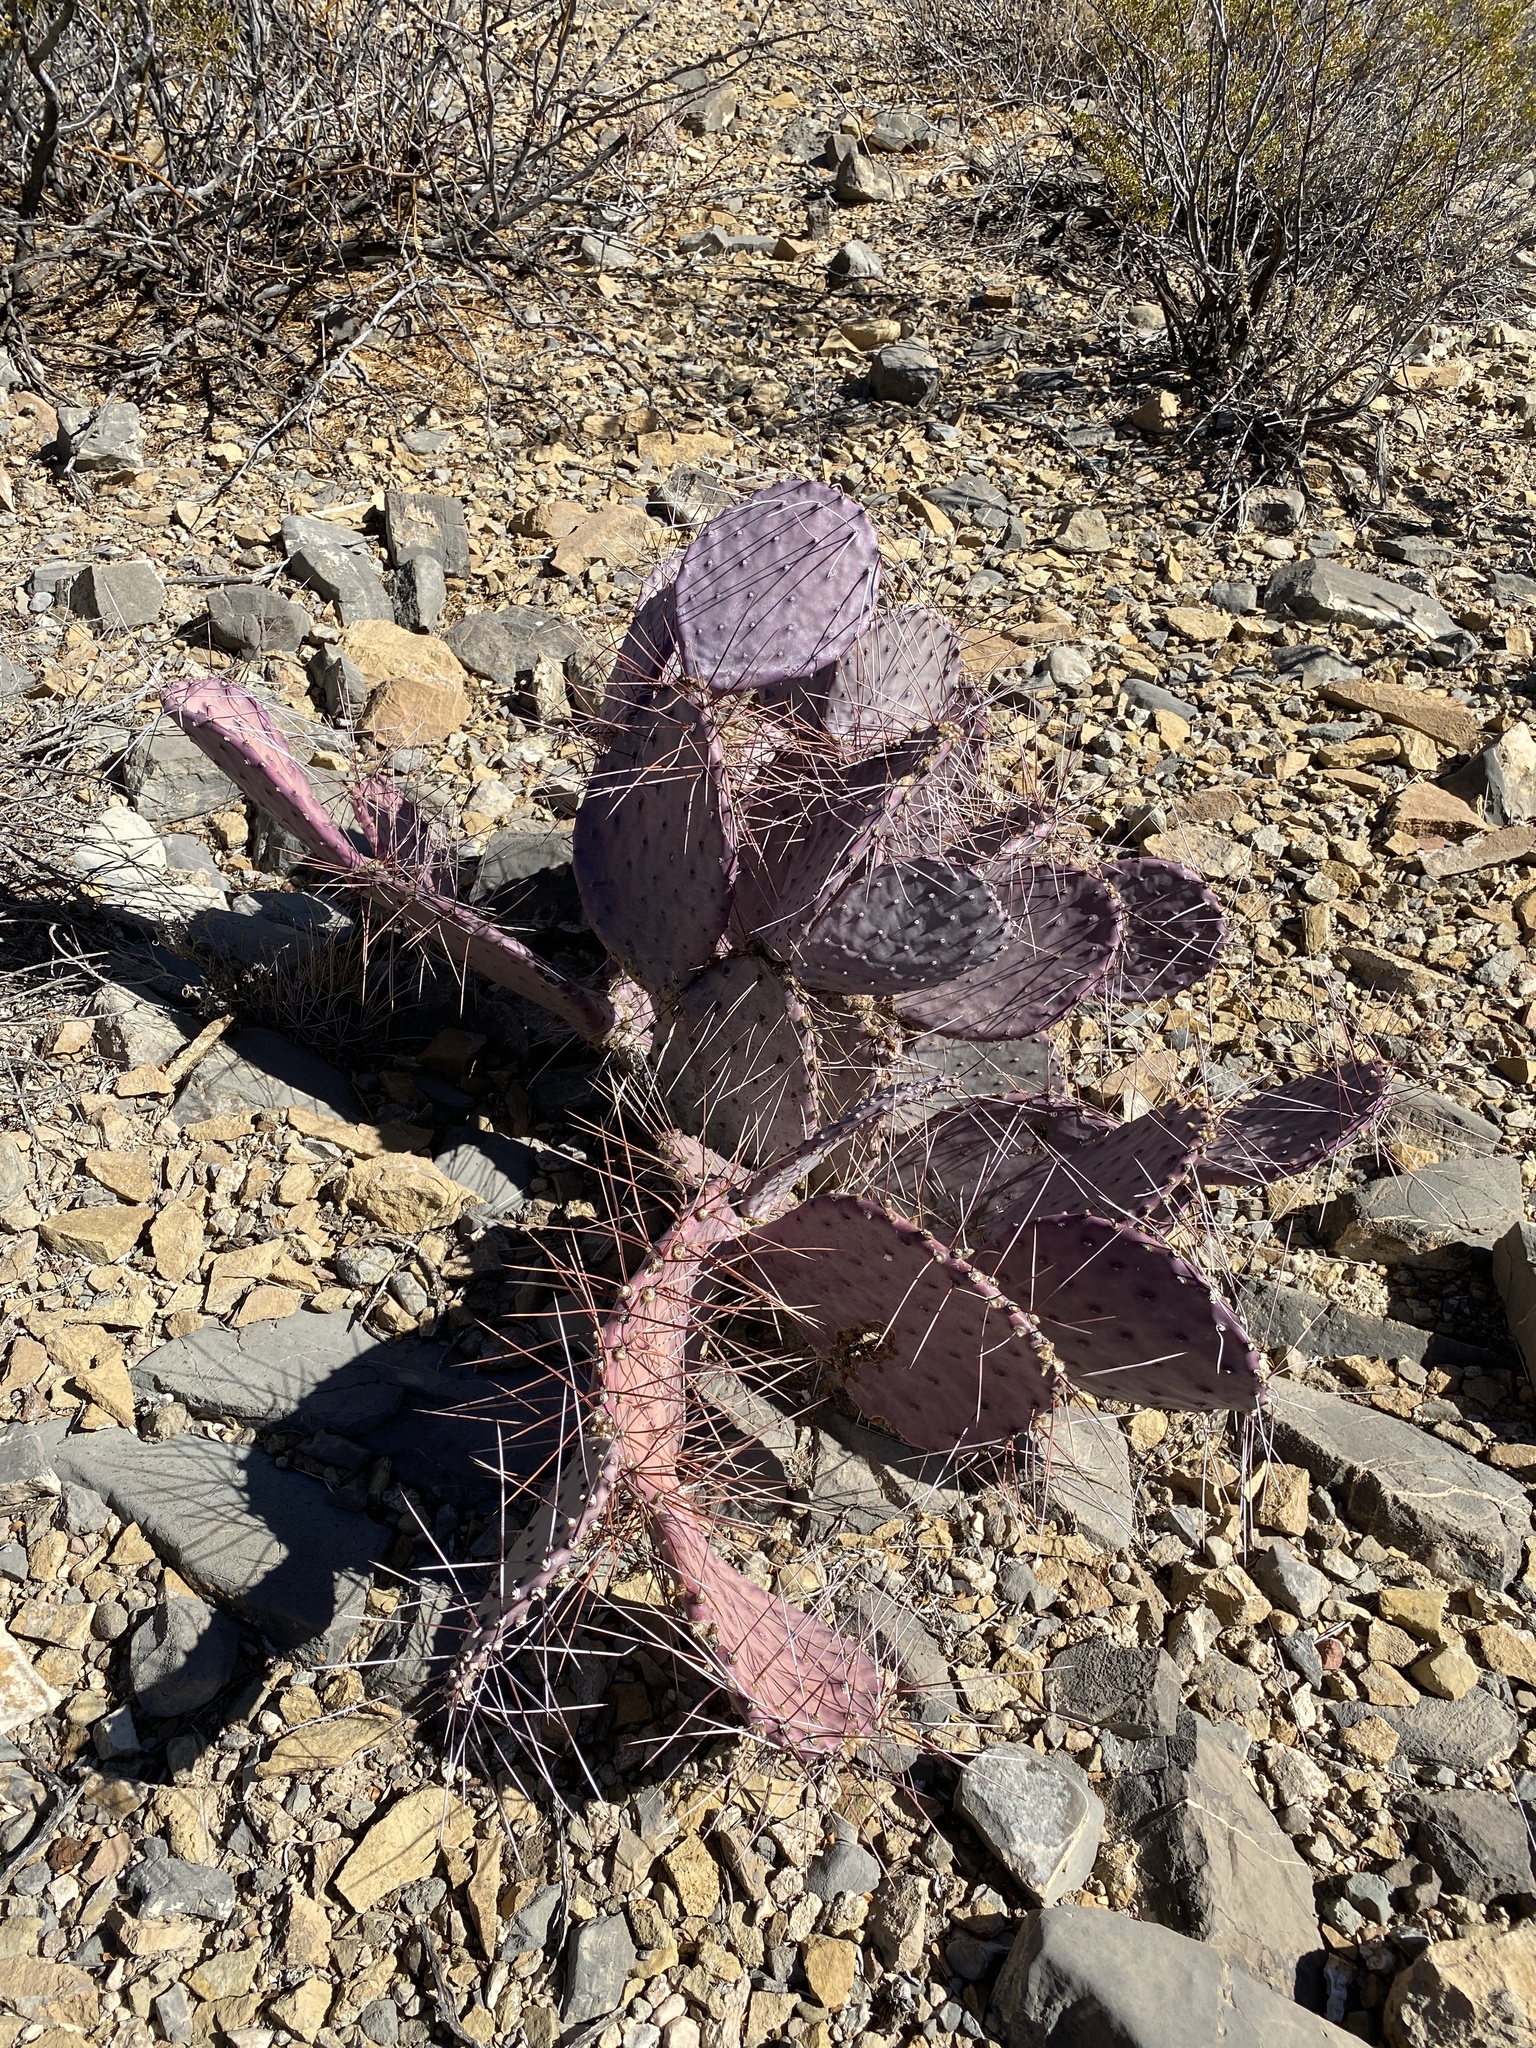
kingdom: Plantae
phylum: Tracheophyta
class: Magnoliopsida
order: Caryophyllales
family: Cactaceae
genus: Opuntia
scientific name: Opuntia macrocentra
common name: Purple prickly-pear
